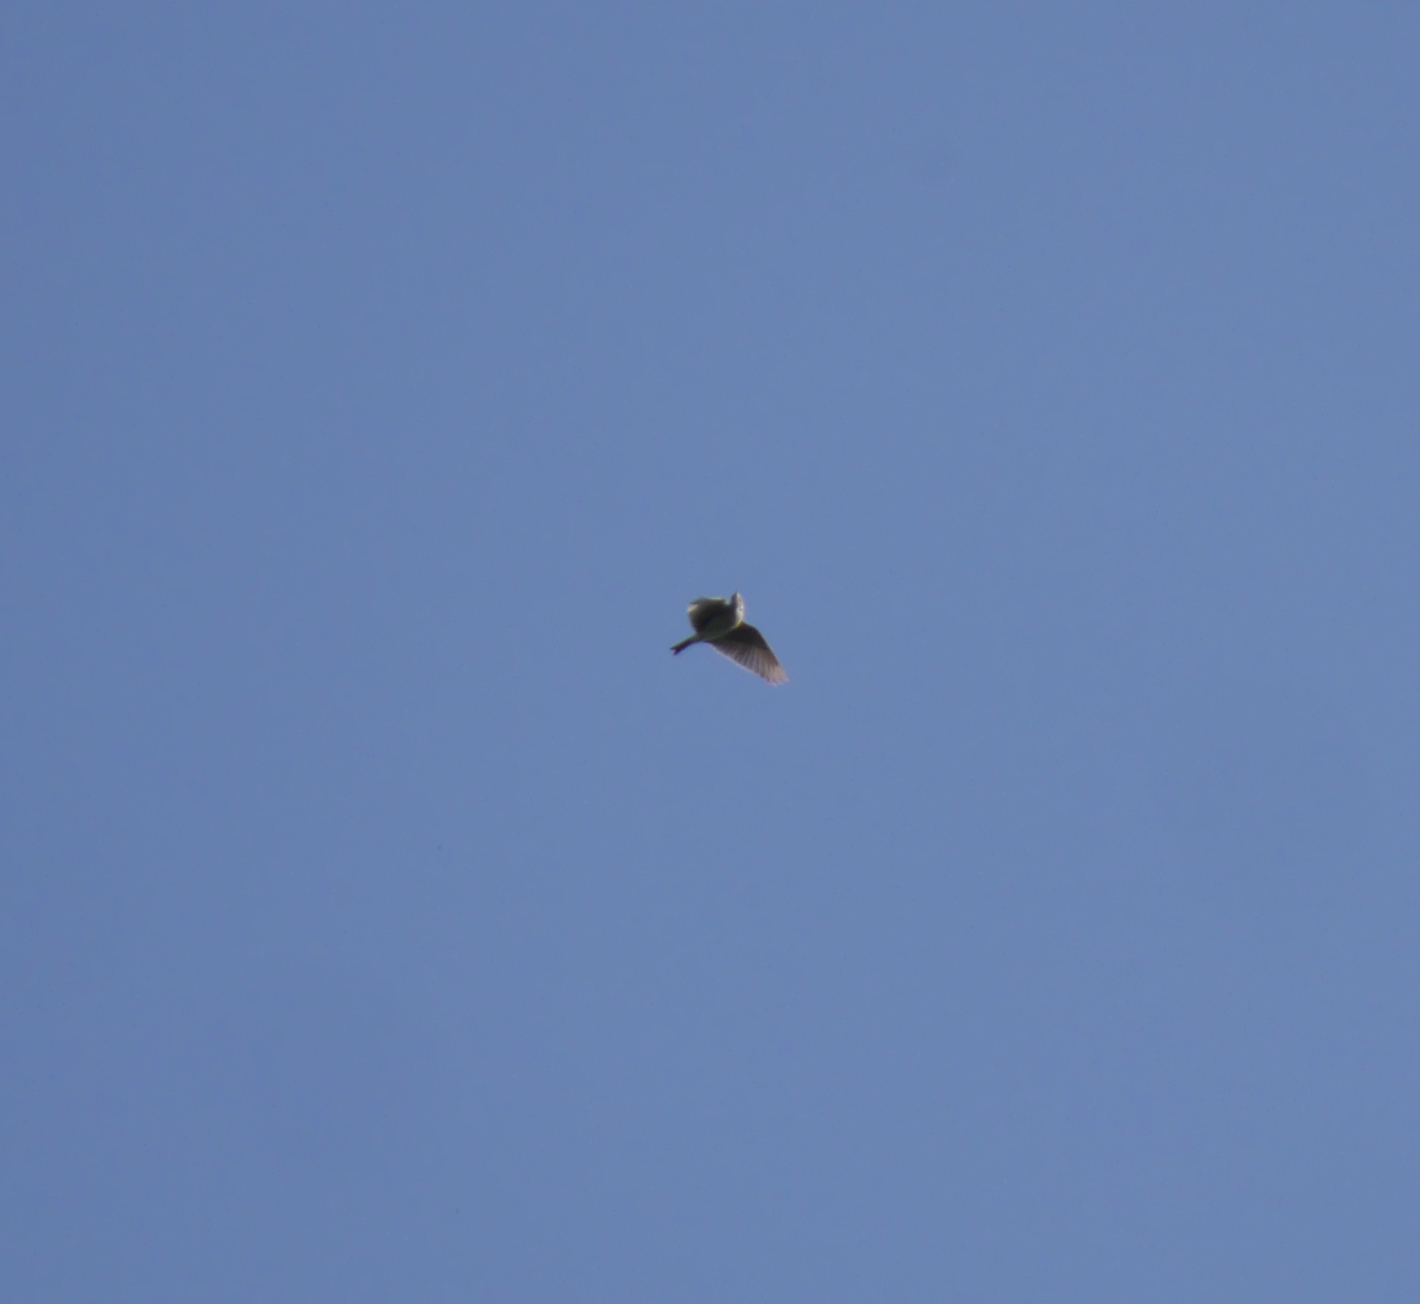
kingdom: Animalia
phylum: Chordata
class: Aves
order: Passeriformes
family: Alaudidae
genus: Alauda
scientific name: Alauda arvensis
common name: Eurasian skylark
